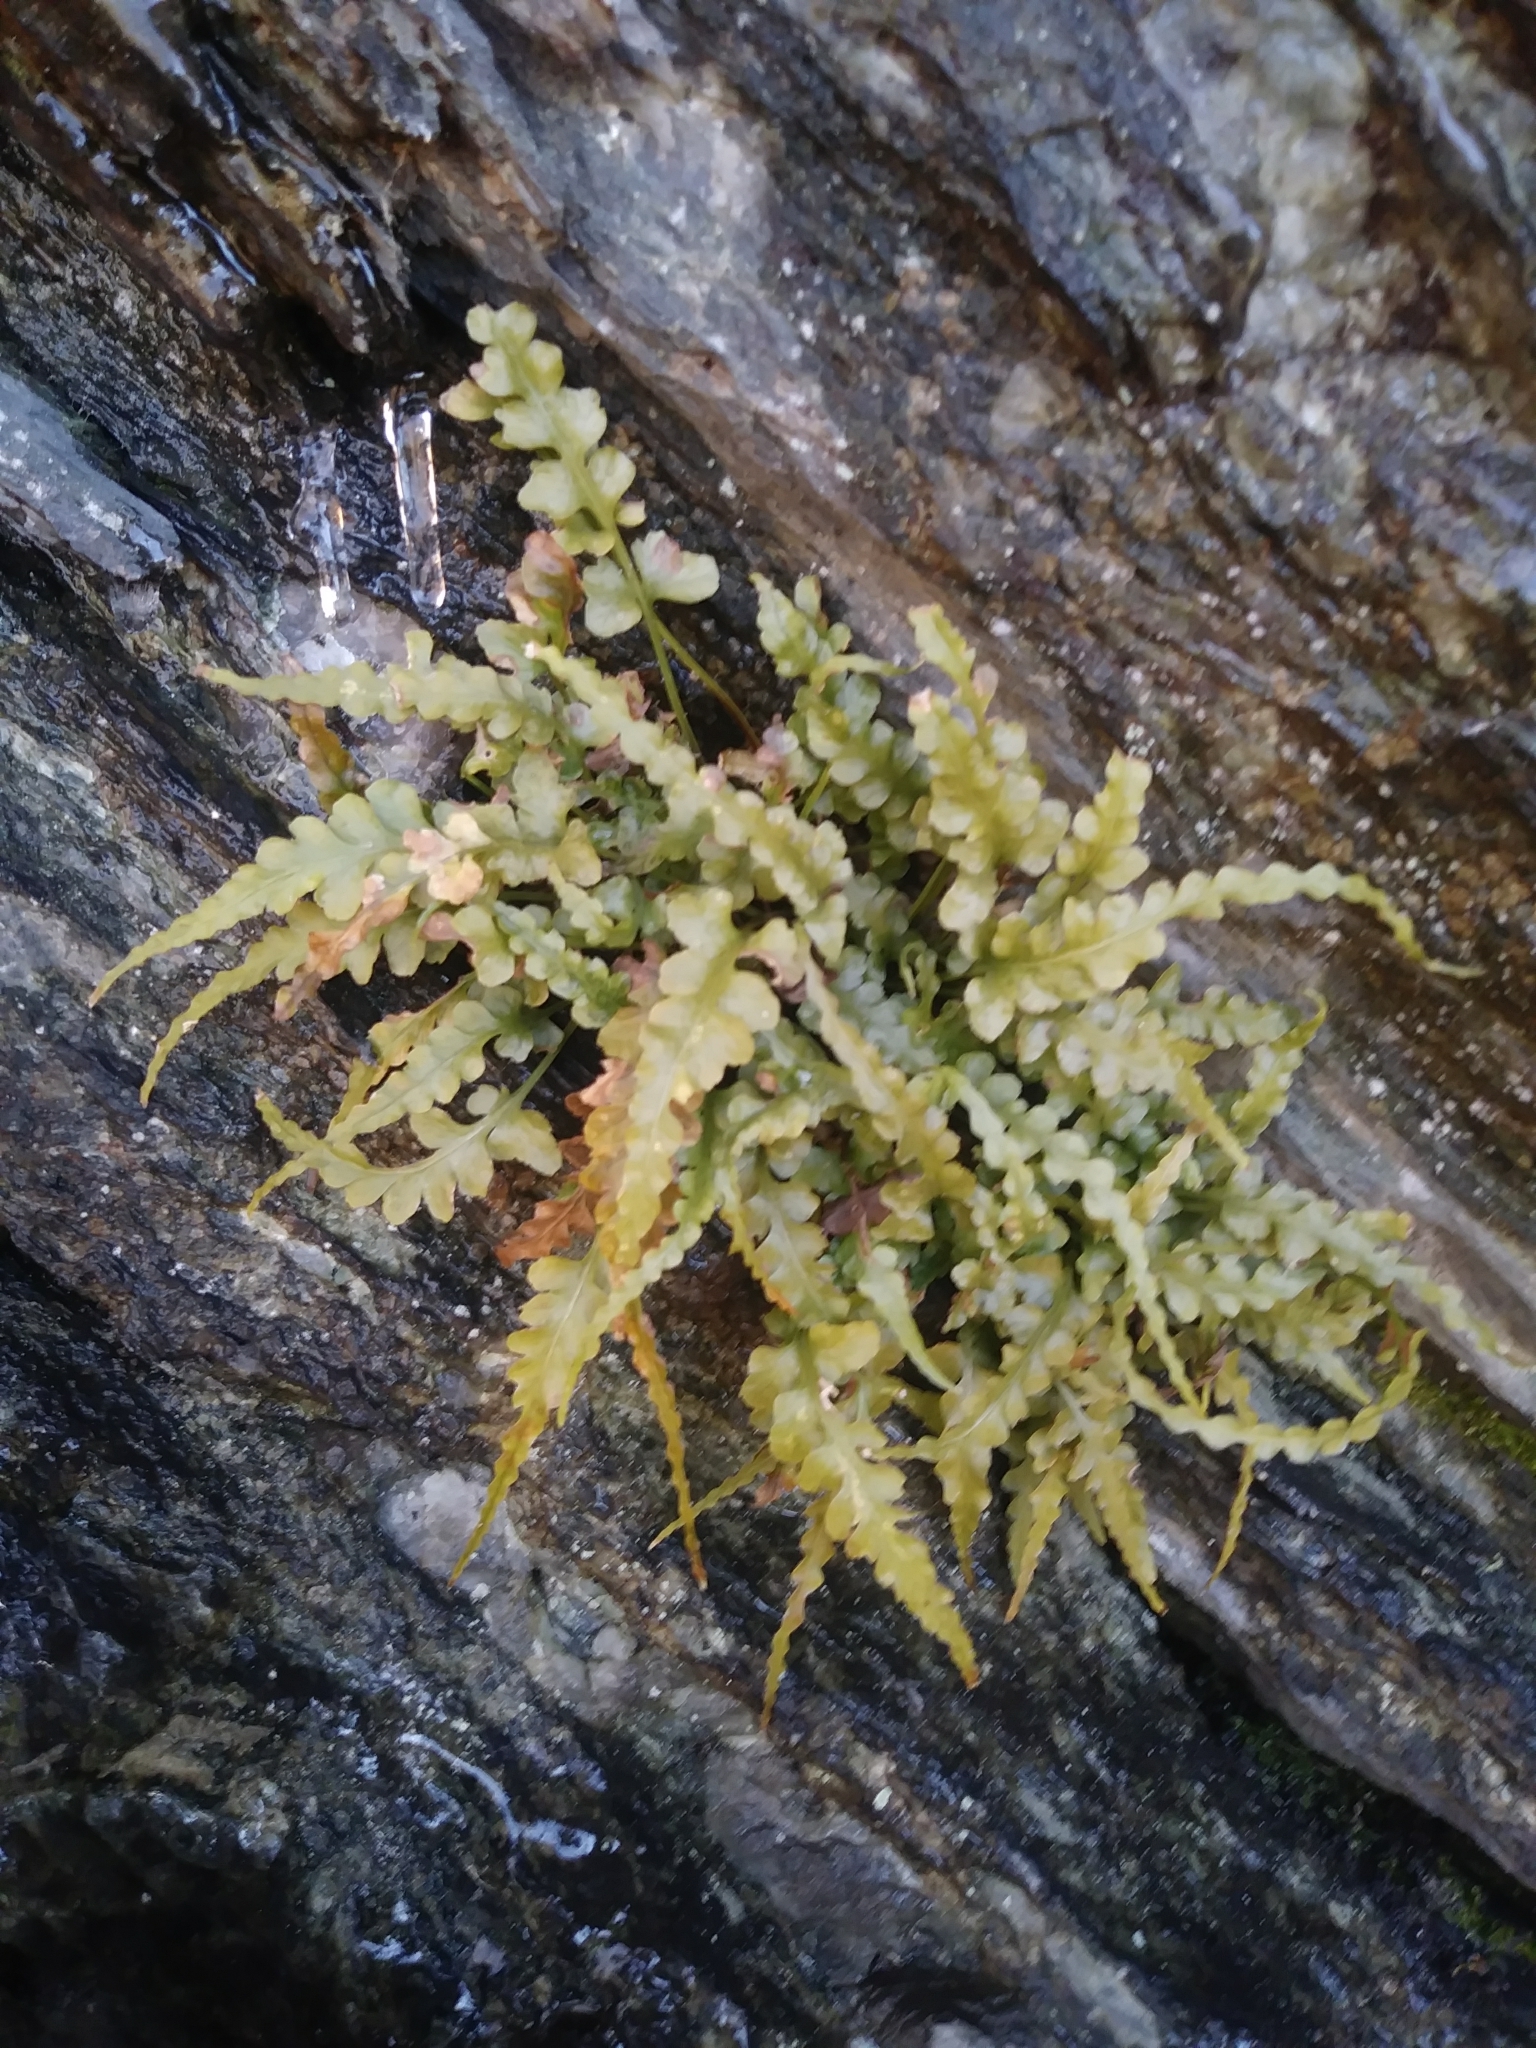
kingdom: Plantae
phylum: Tracheophyta
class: Polypodiopsida
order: Polypodiales
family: Aspleniaceae
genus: Asplenium
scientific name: Asplenium pinnatifidum
